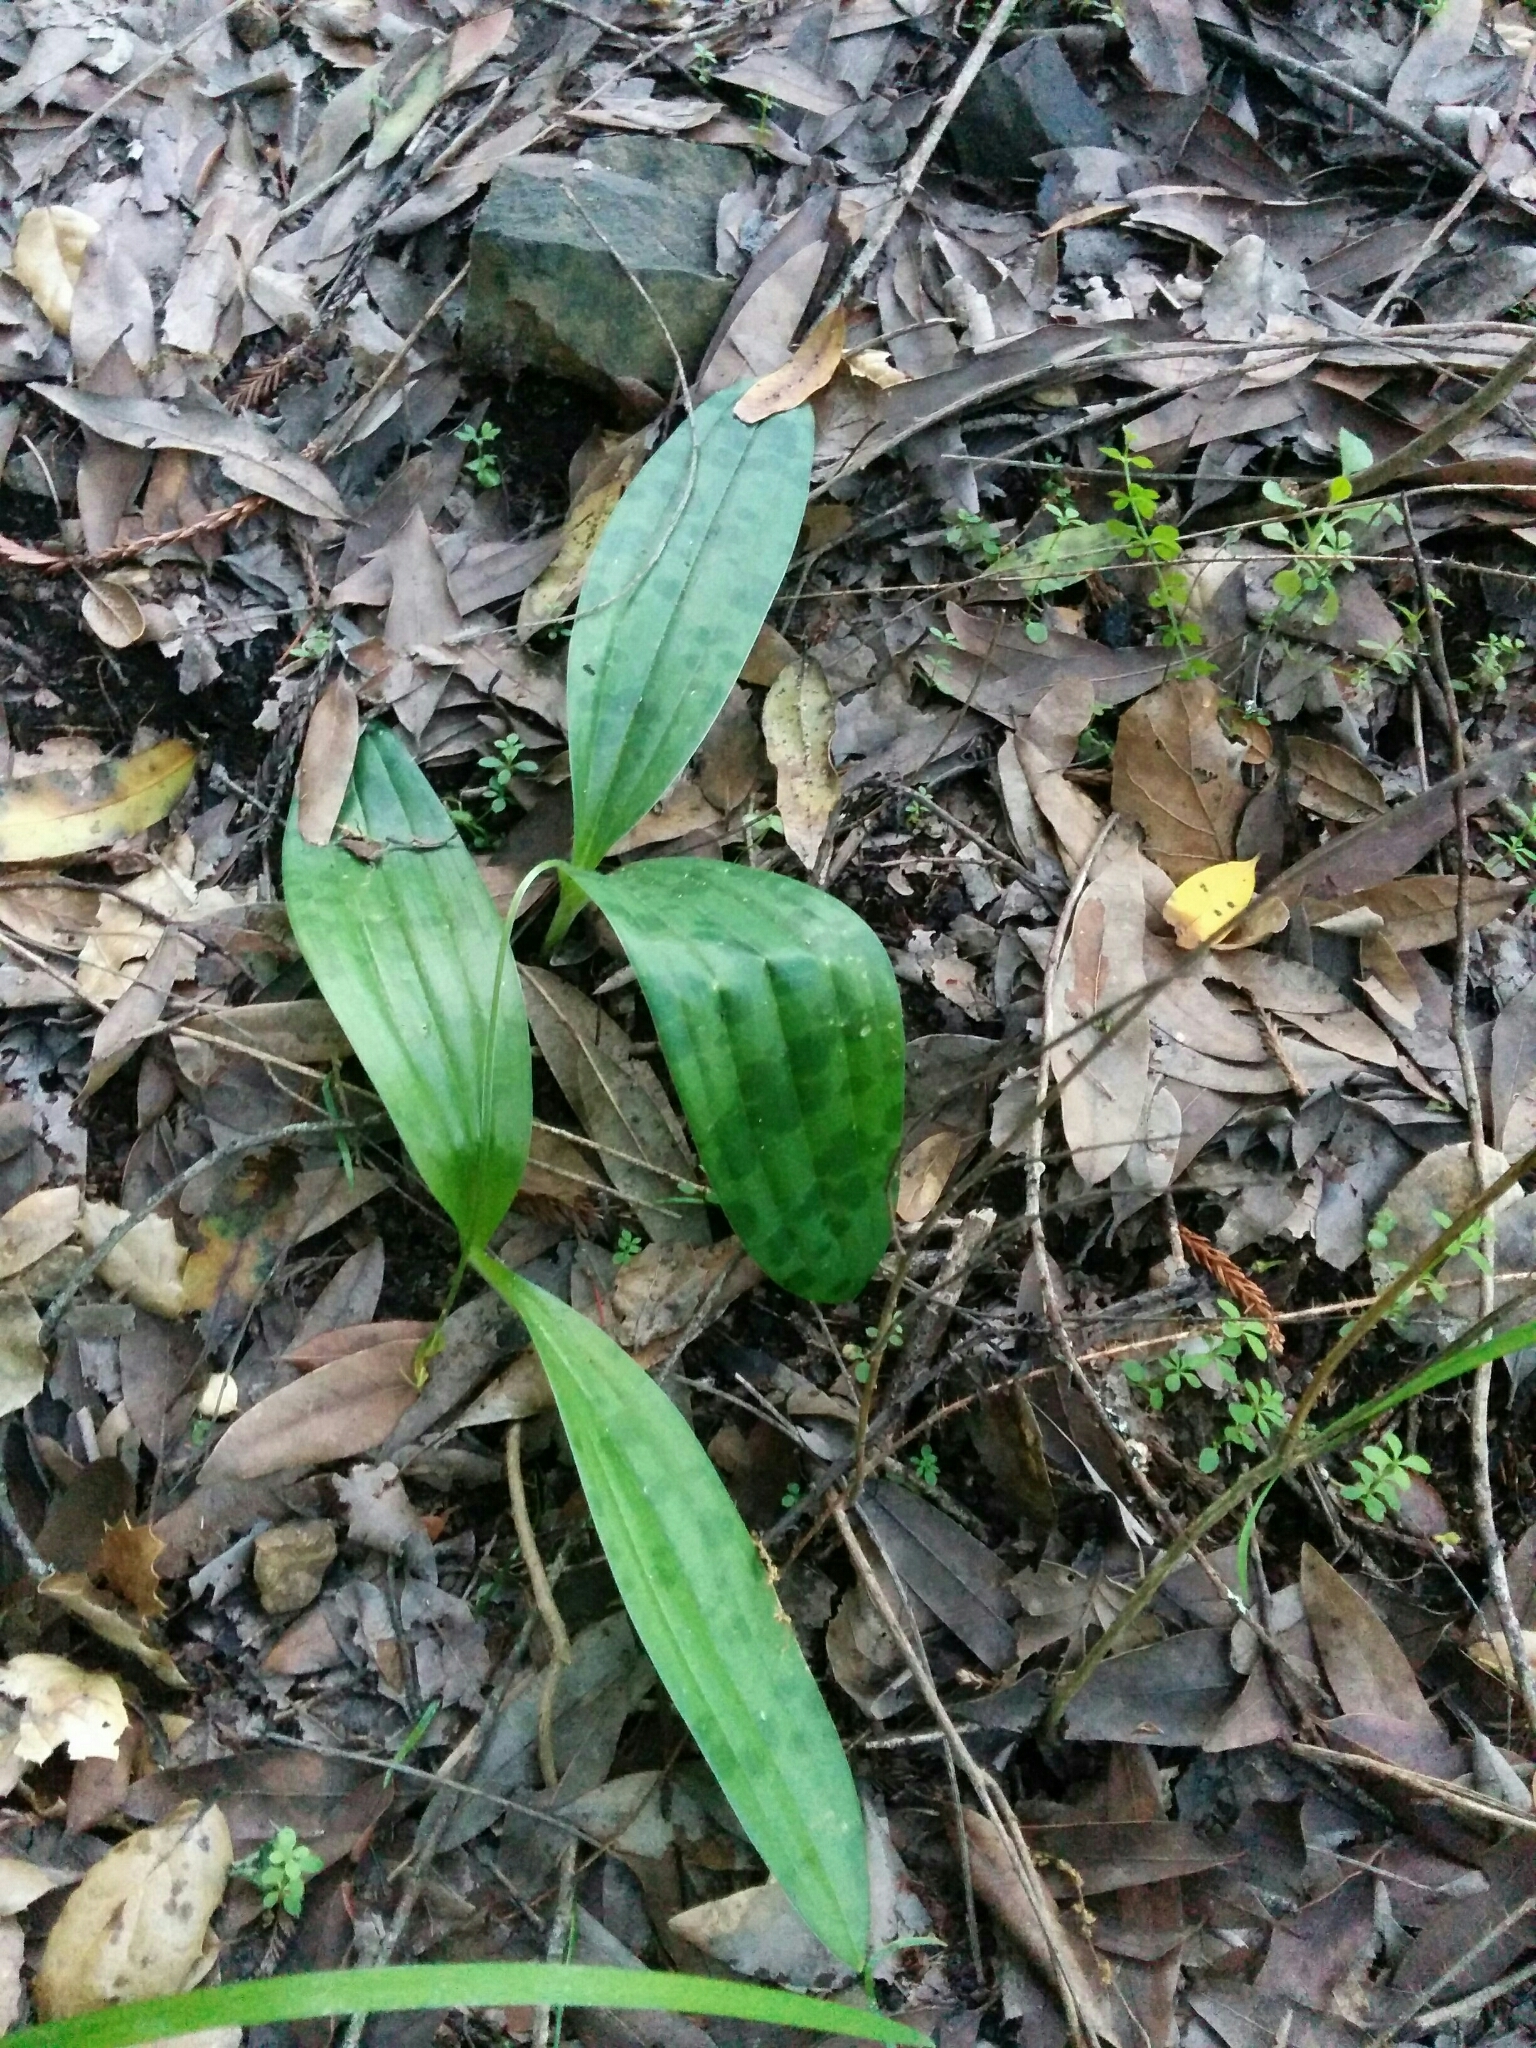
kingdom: Plantae
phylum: Tracheophyta
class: Liliopsida
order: Liliales
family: Liliaceae
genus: Scoliopus
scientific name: Scoliopus bigelovii
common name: Foetid adder's-tongue
